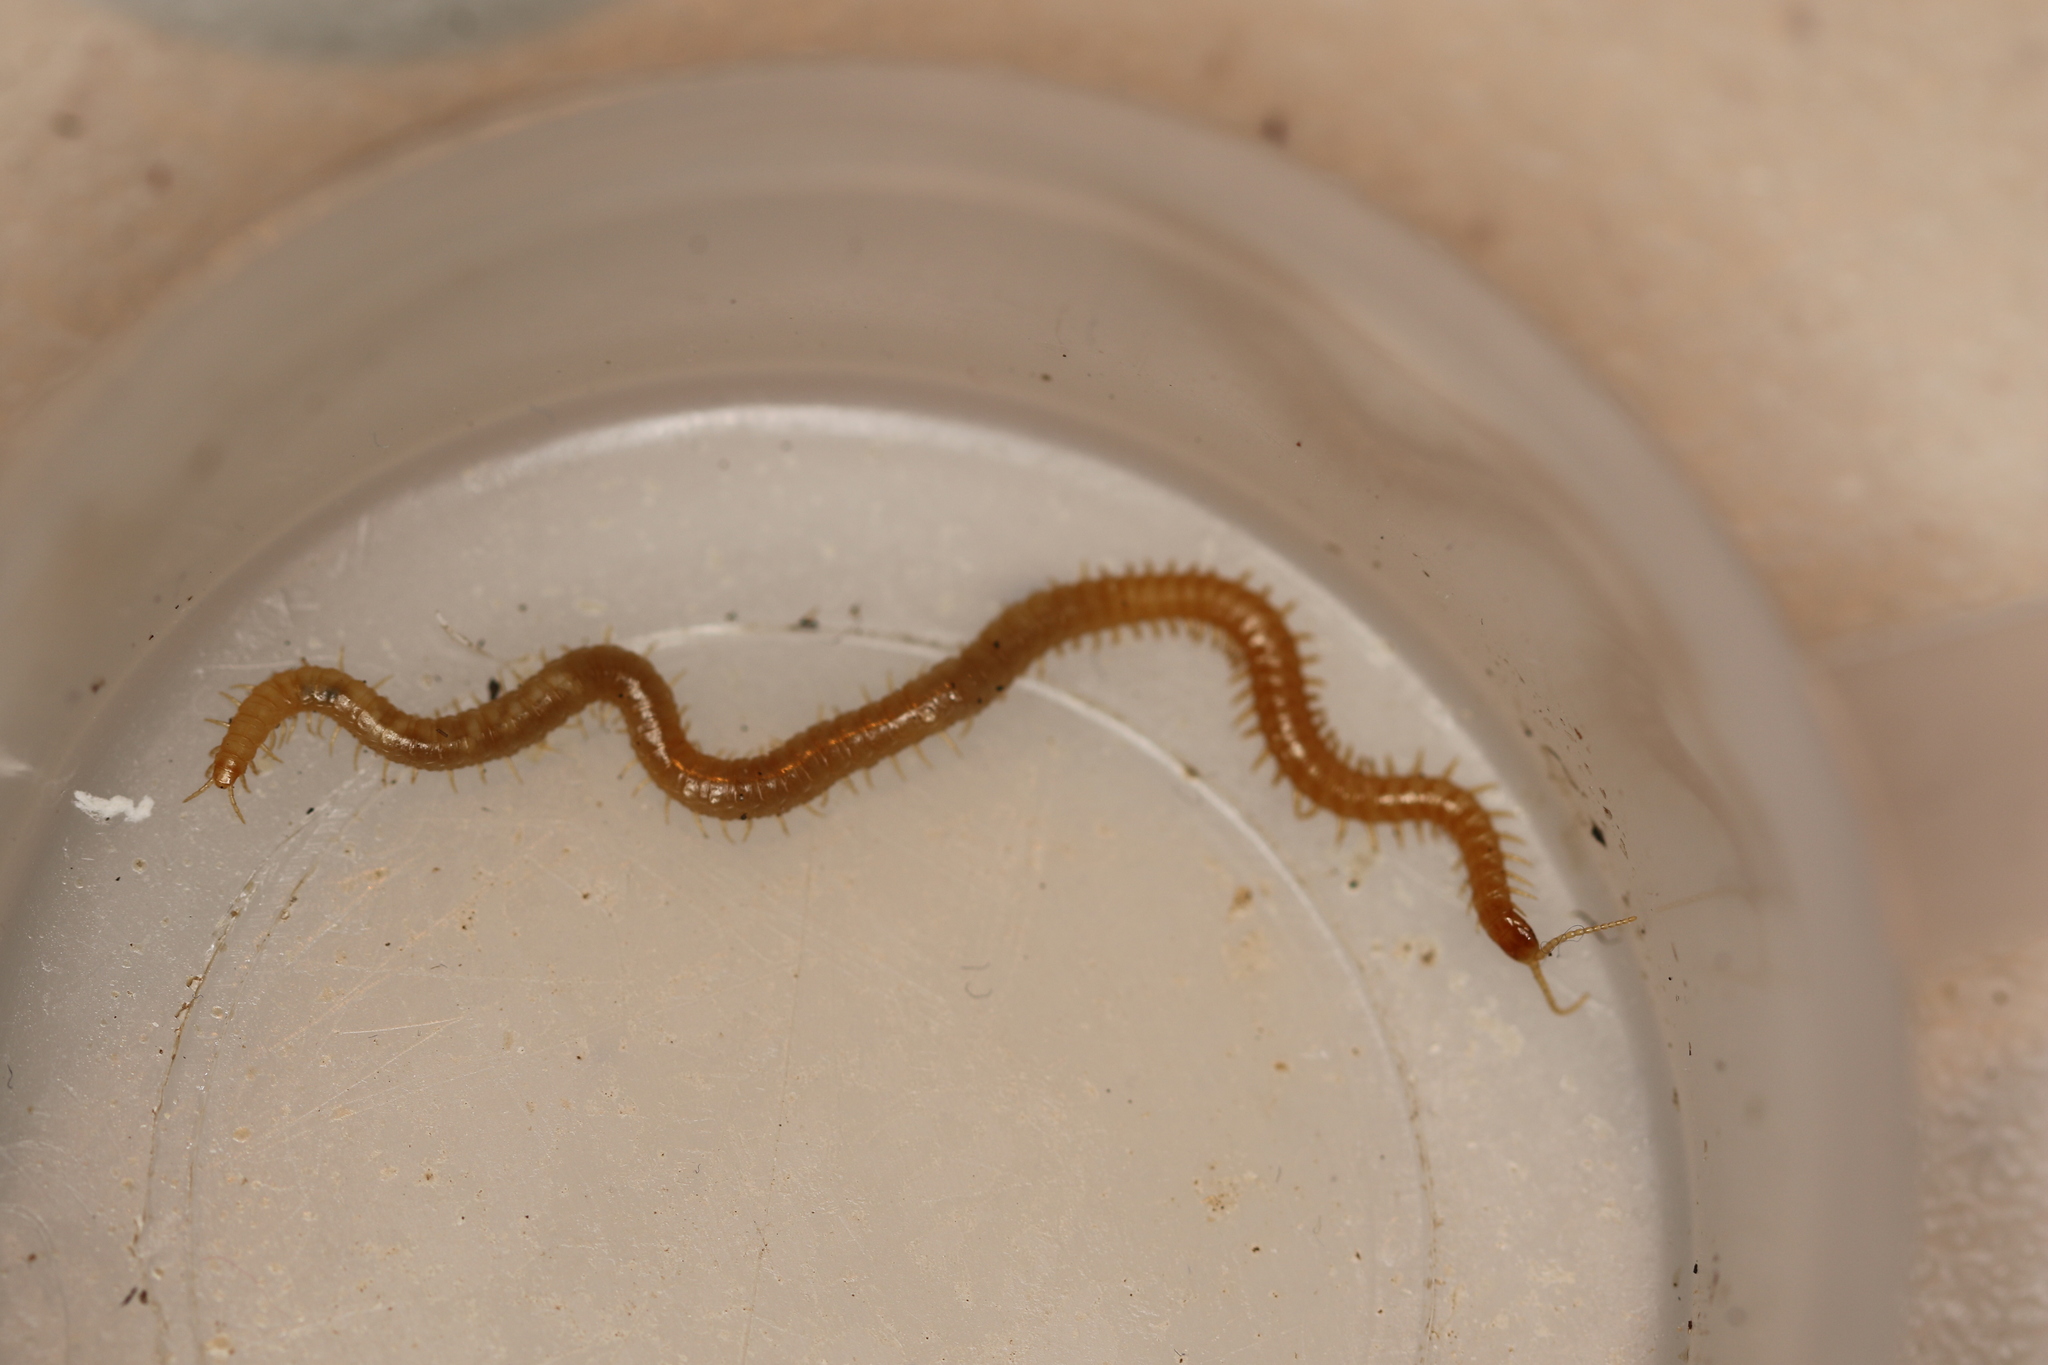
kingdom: Animalia
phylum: Arthropoda
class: Chilopoda
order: Geophilomorpha
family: Geophilidae
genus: Stenotaenia
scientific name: Stenotaenia linearis
